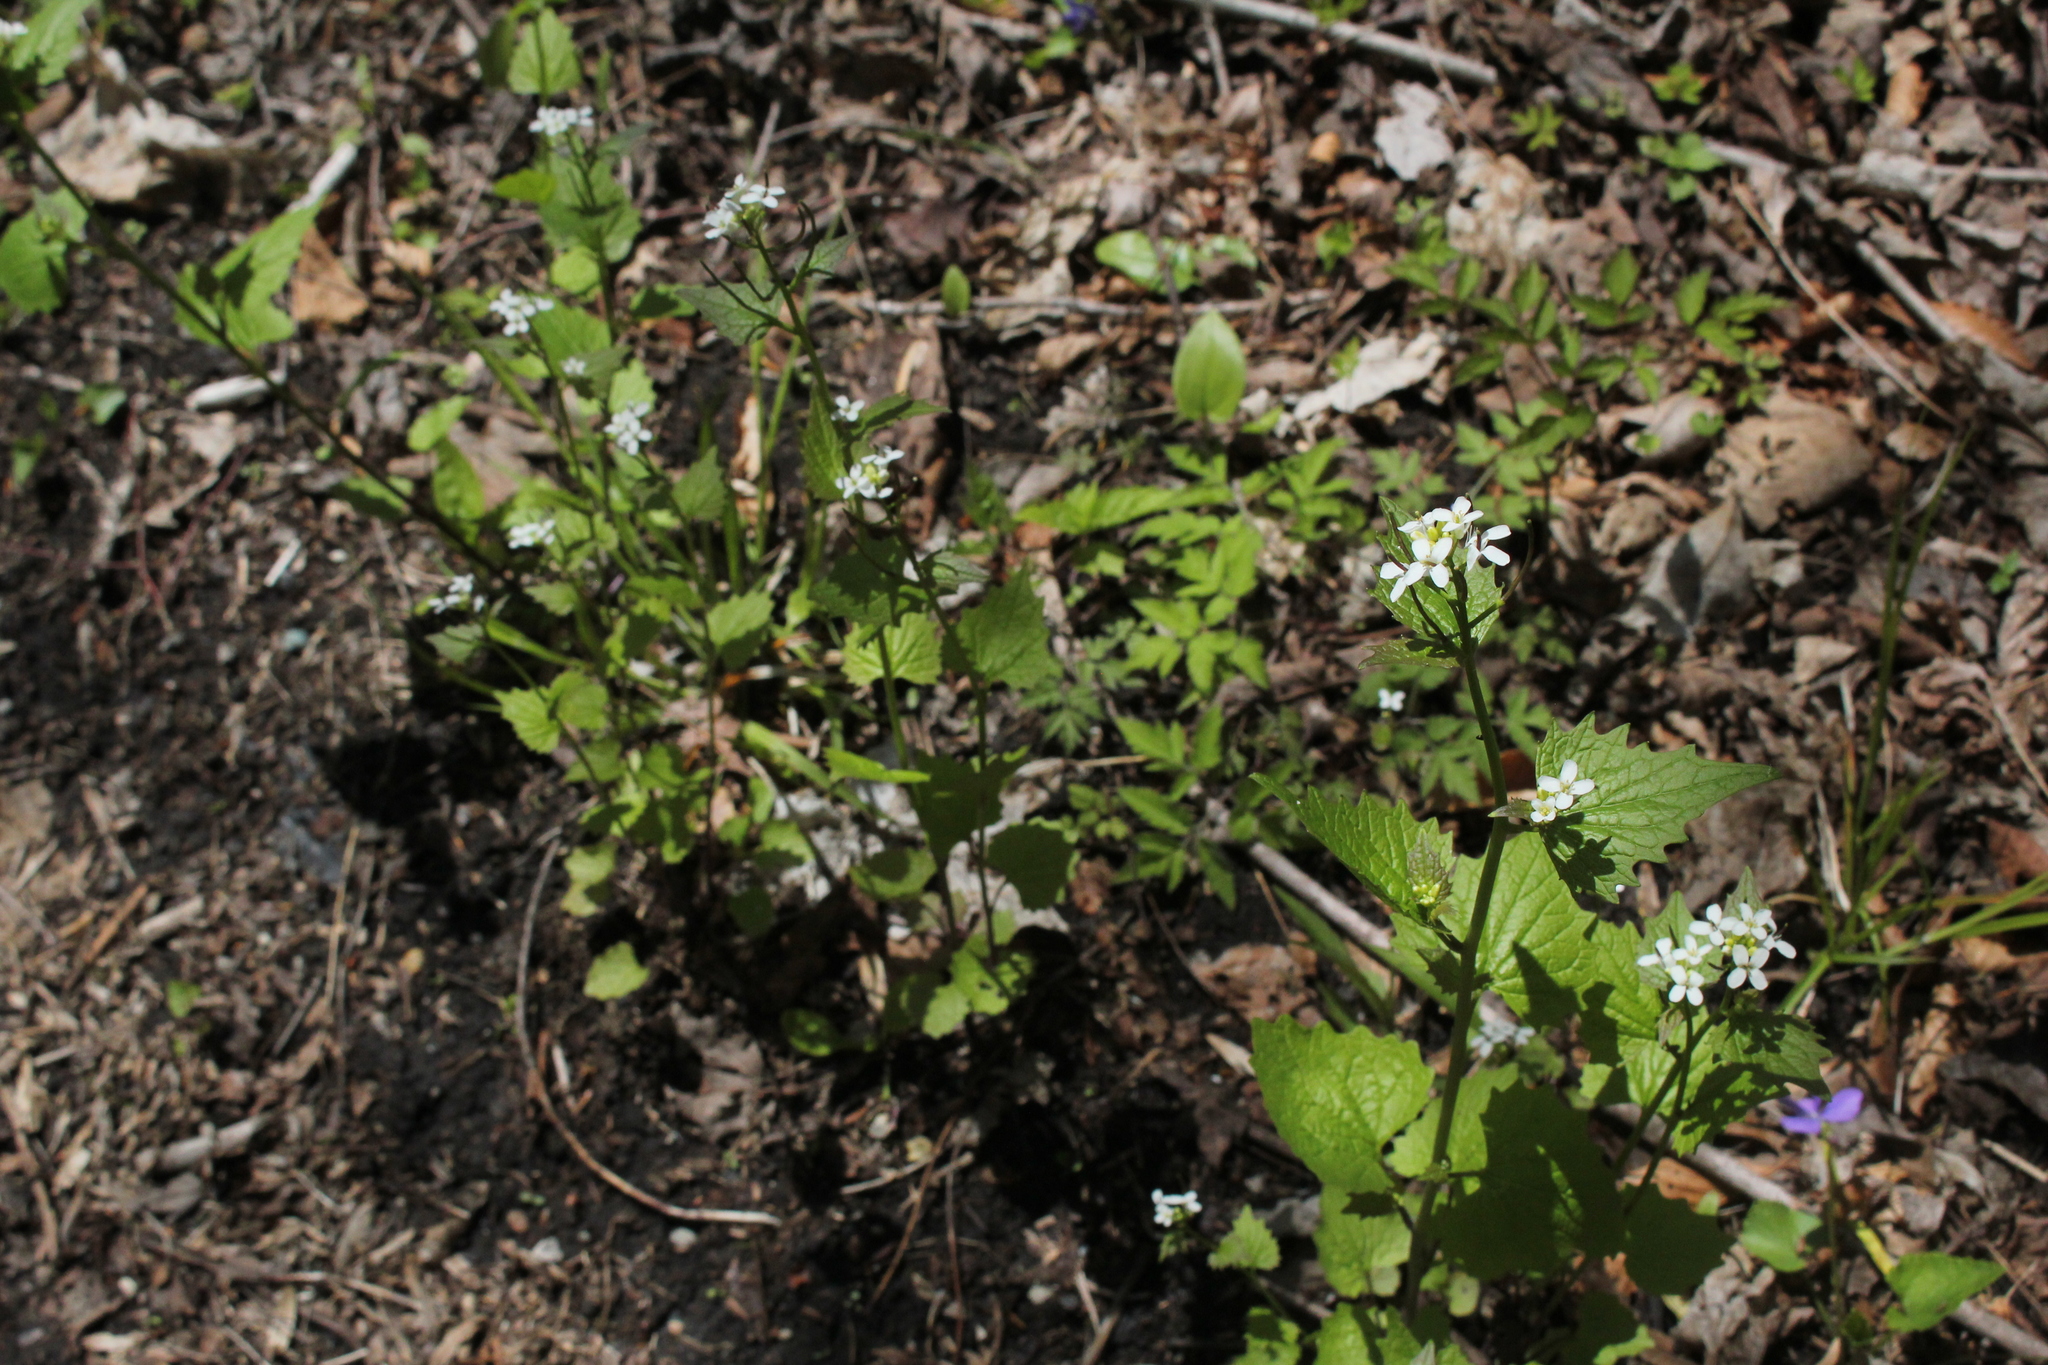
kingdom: Plantae
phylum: Tracheophyta
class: Magnoliopsida
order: Brassicales
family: Brassicaceae
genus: Alliaria
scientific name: Alliaria petiolata
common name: Garlic mustard
